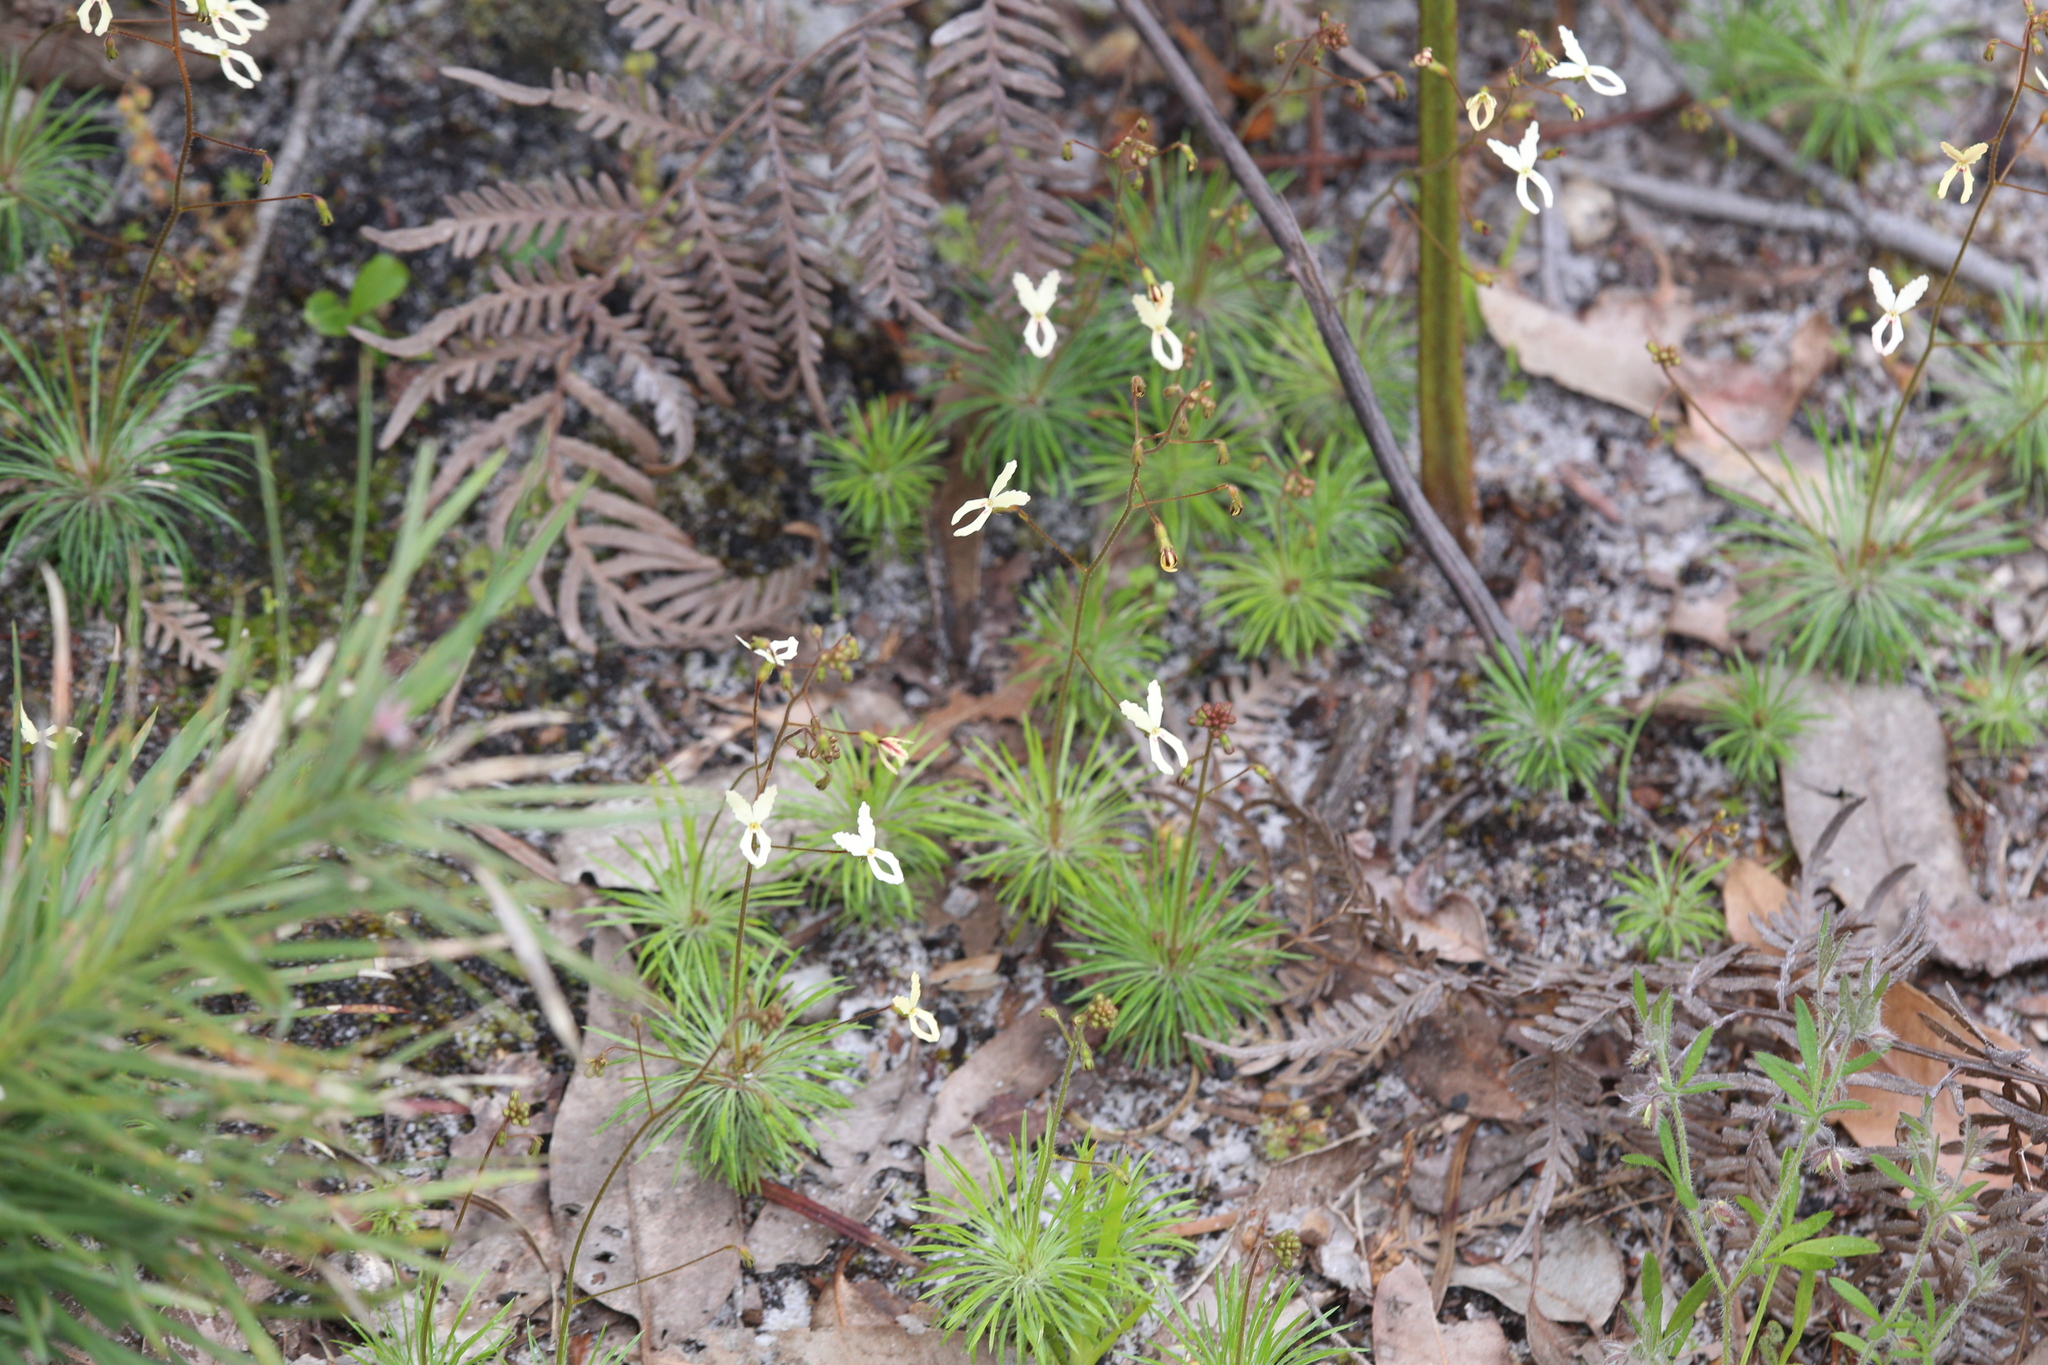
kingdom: Plantae
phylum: Tracheophyta
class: Magnoliopsida
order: Asterales
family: Stylidiaceae
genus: Stylidium
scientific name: Stylidium spinulosum
